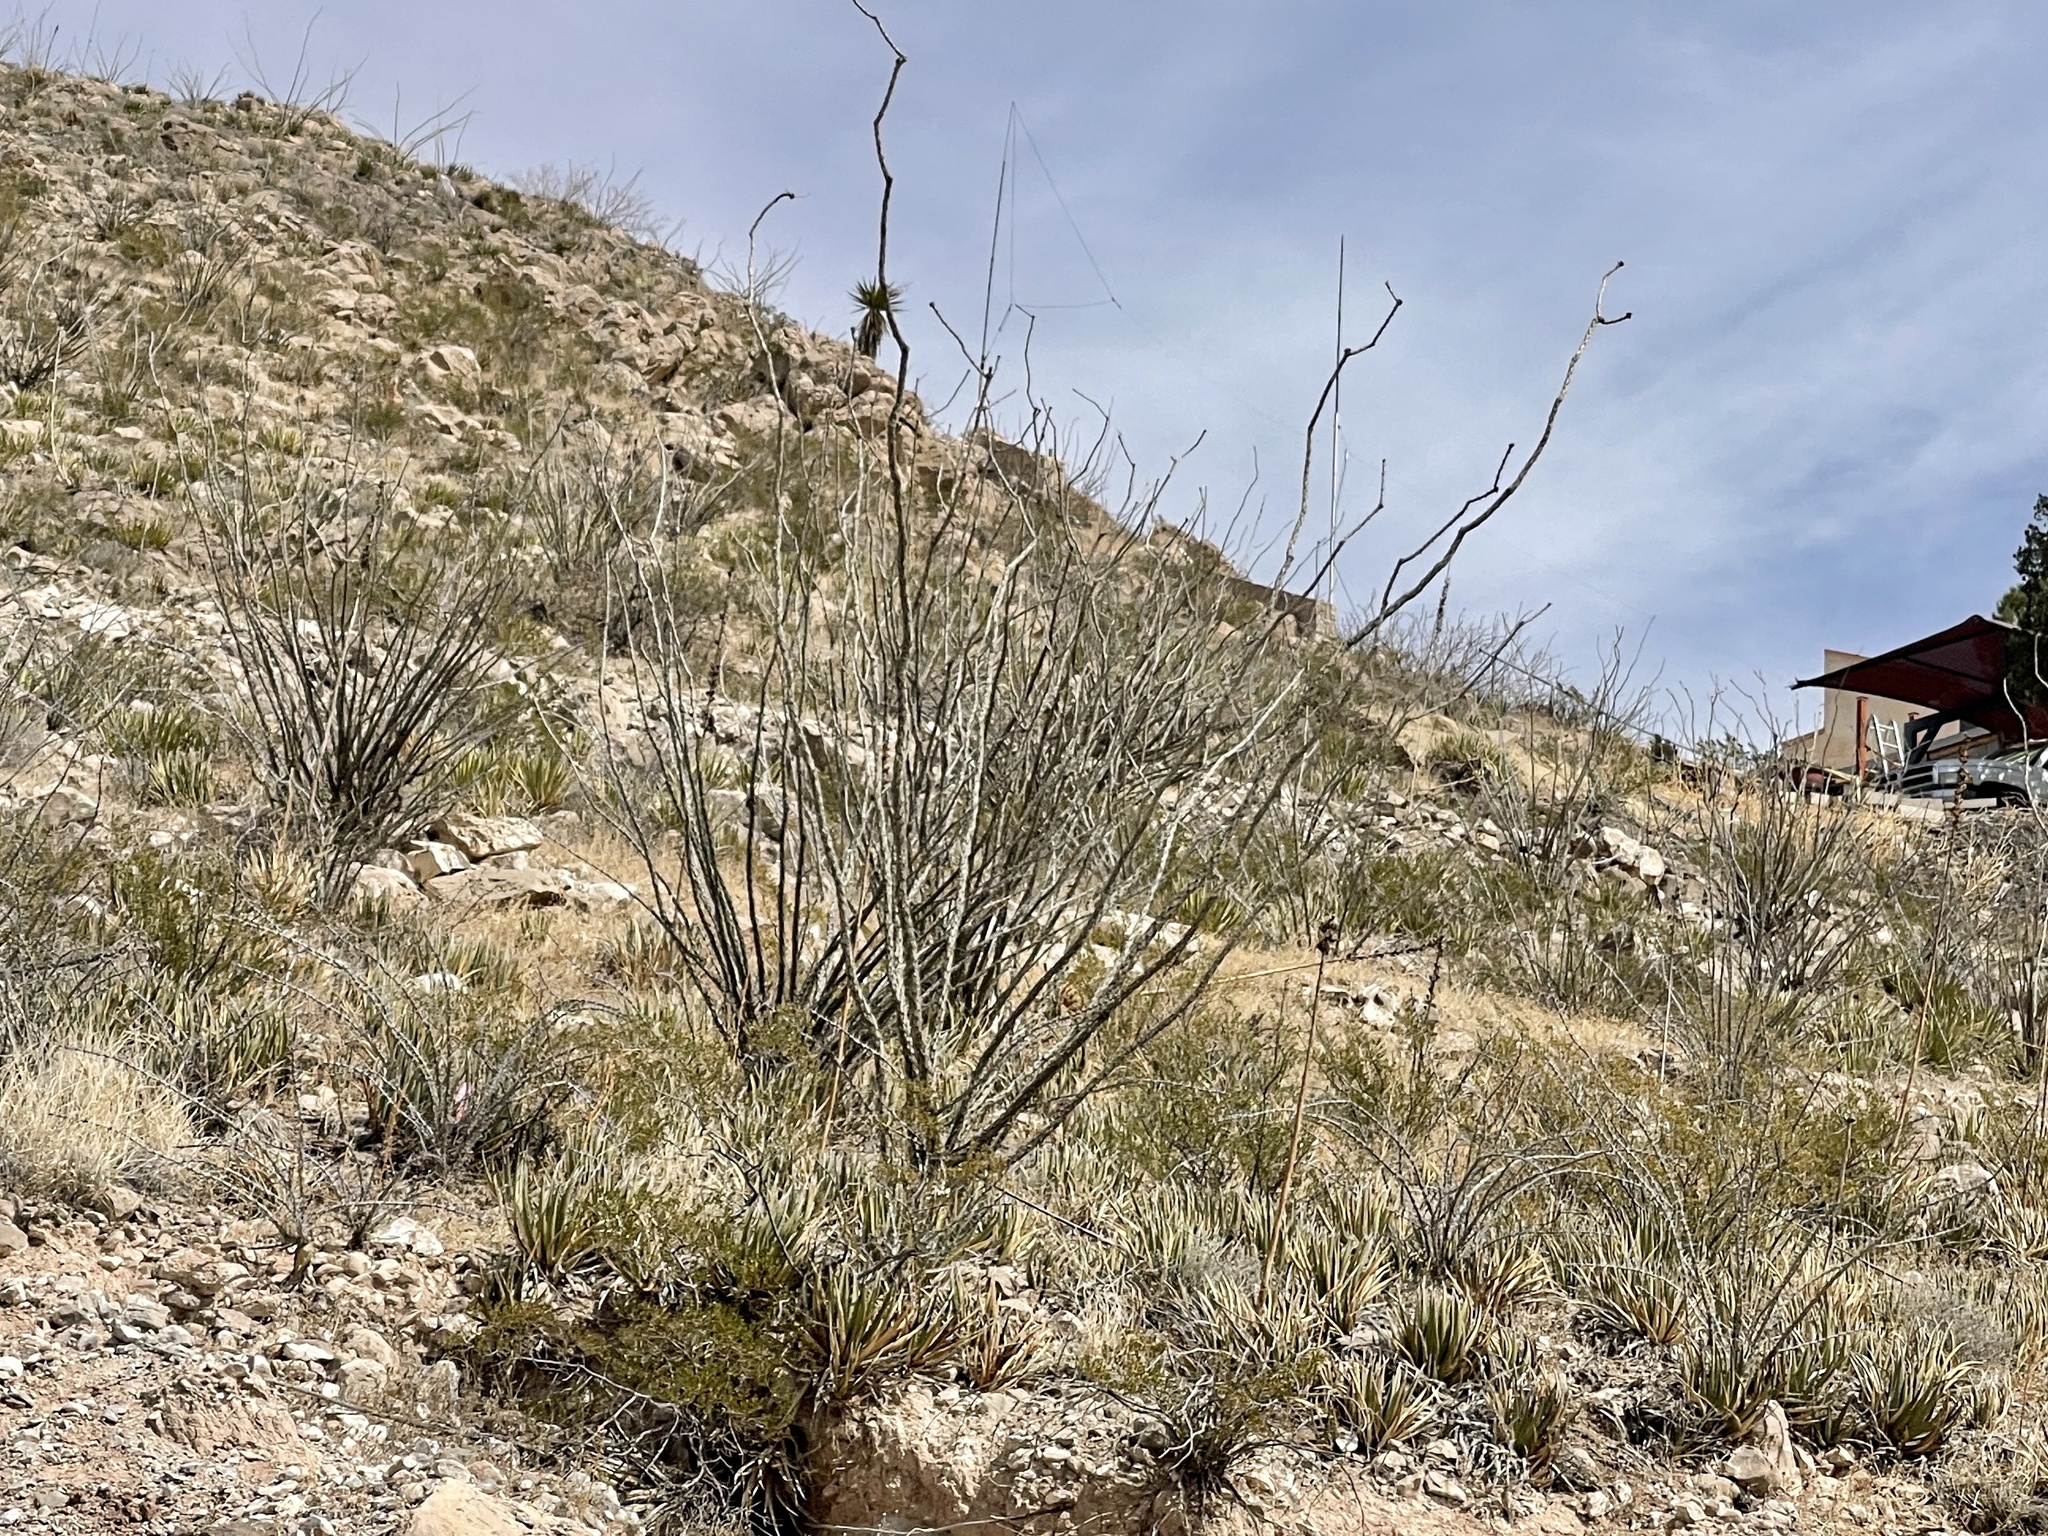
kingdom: Plantae
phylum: Tracheophyta
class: Magnoliopsida
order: Ericales
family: Fouquieriaceae
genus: Fouquieria
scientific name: Fouquieria splendens
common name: Vine-cactus
